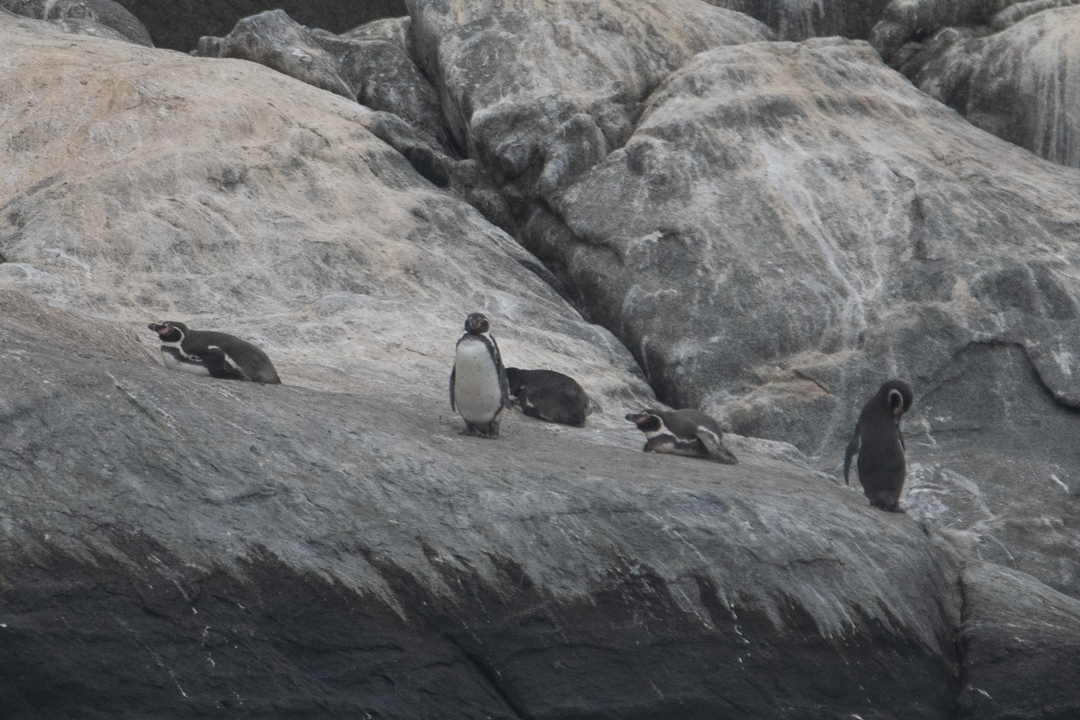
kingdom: Animalia
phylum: Chordata
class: Aves
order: Sphenisciformes
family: Spheniscidae
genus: Spheniscus
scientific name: Spheniscus humboldti
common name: Humboldt penguin
